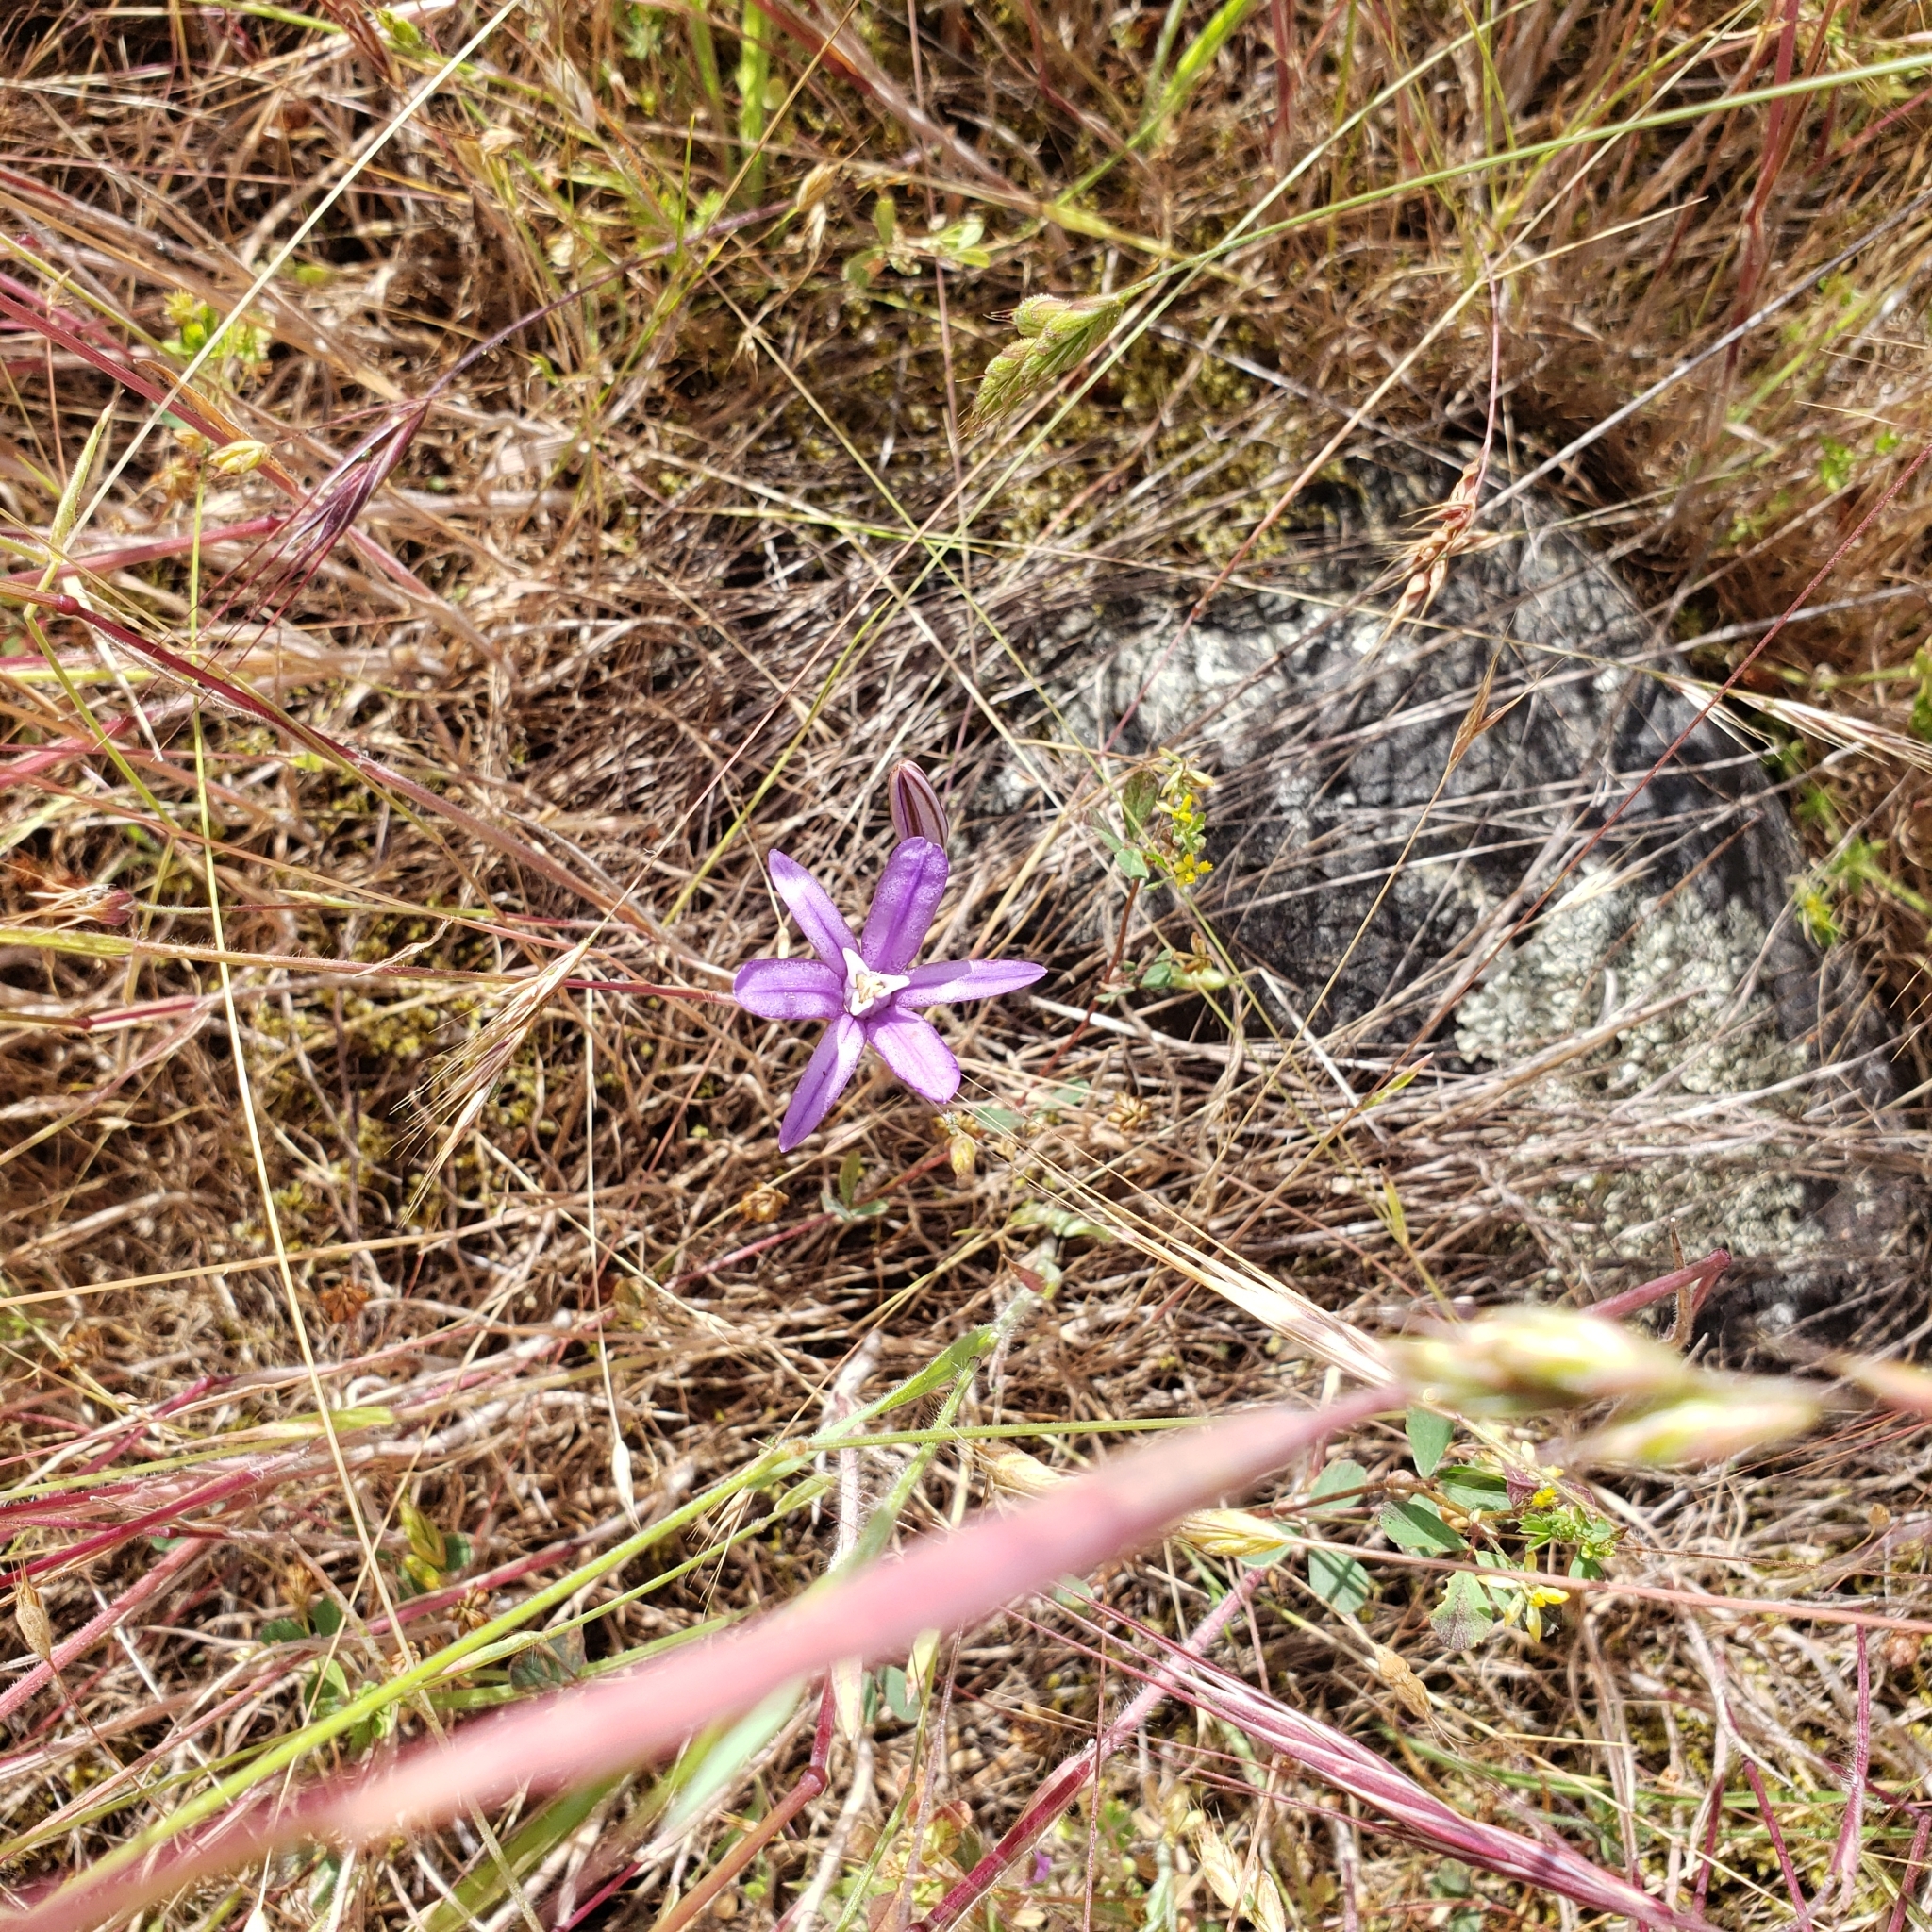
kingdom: Plantae
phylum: Tracheophyta
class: Liliopsida
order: Asparagales
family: Asparagaceae
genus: Brodiaea
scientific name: Brodiaea coronaria
